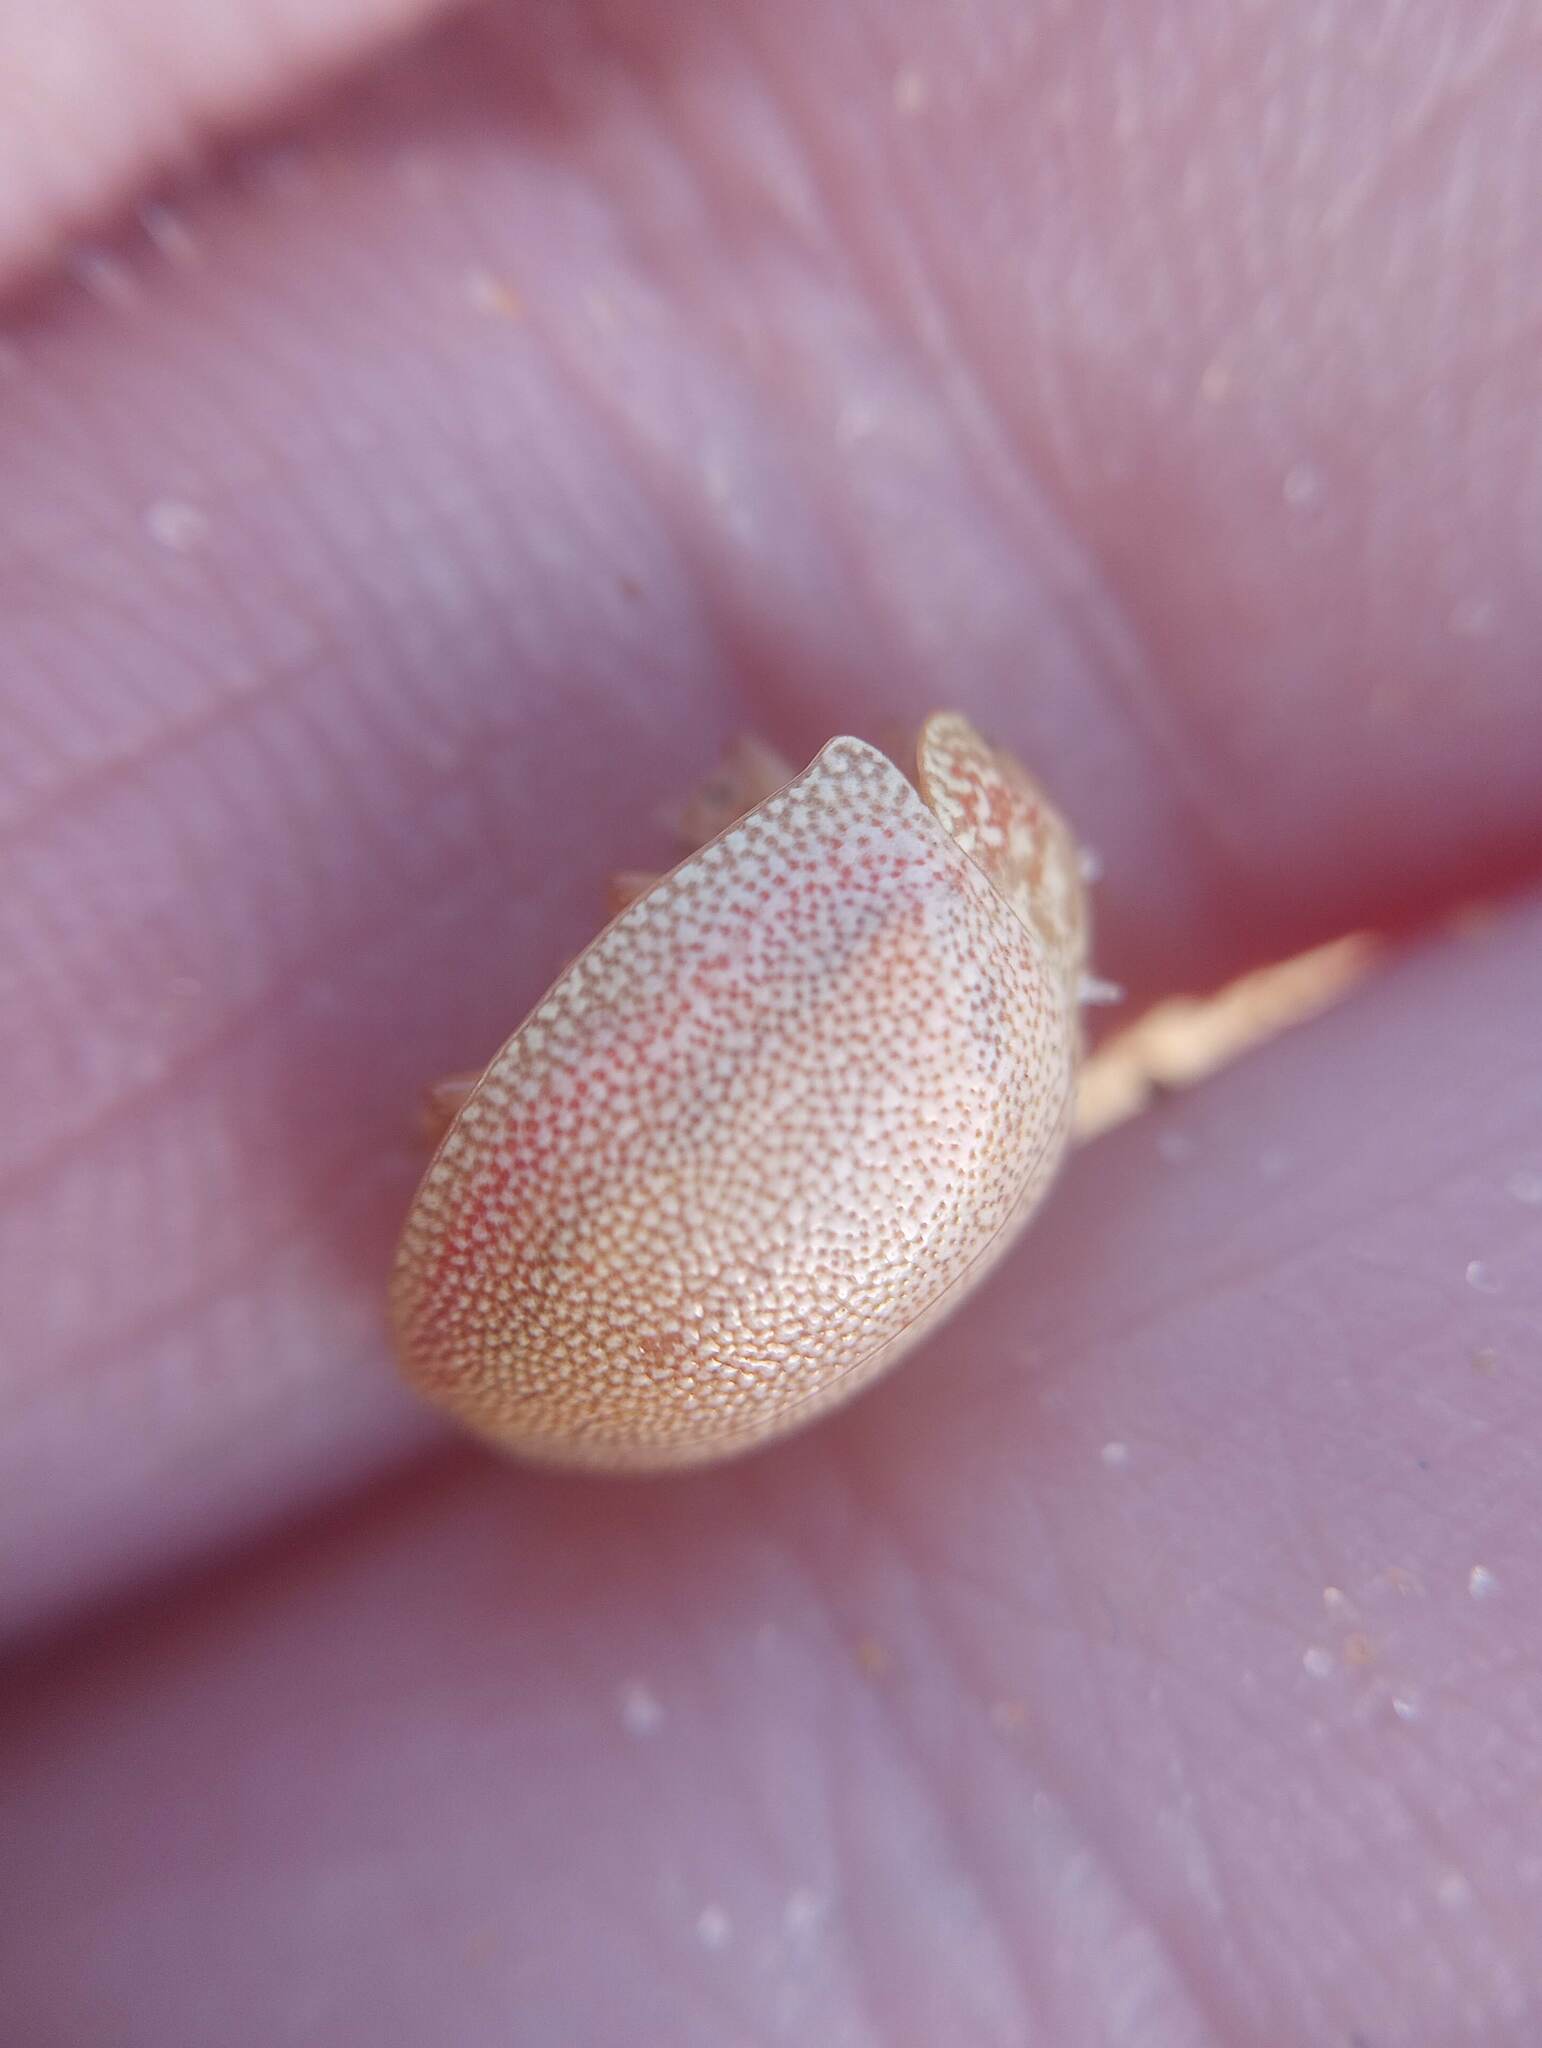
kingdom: Animalia
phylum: Arthropoda
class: Insecta
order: Coleoptera
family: Chrysomelidae
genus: Paropsis
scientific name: Paropsis
